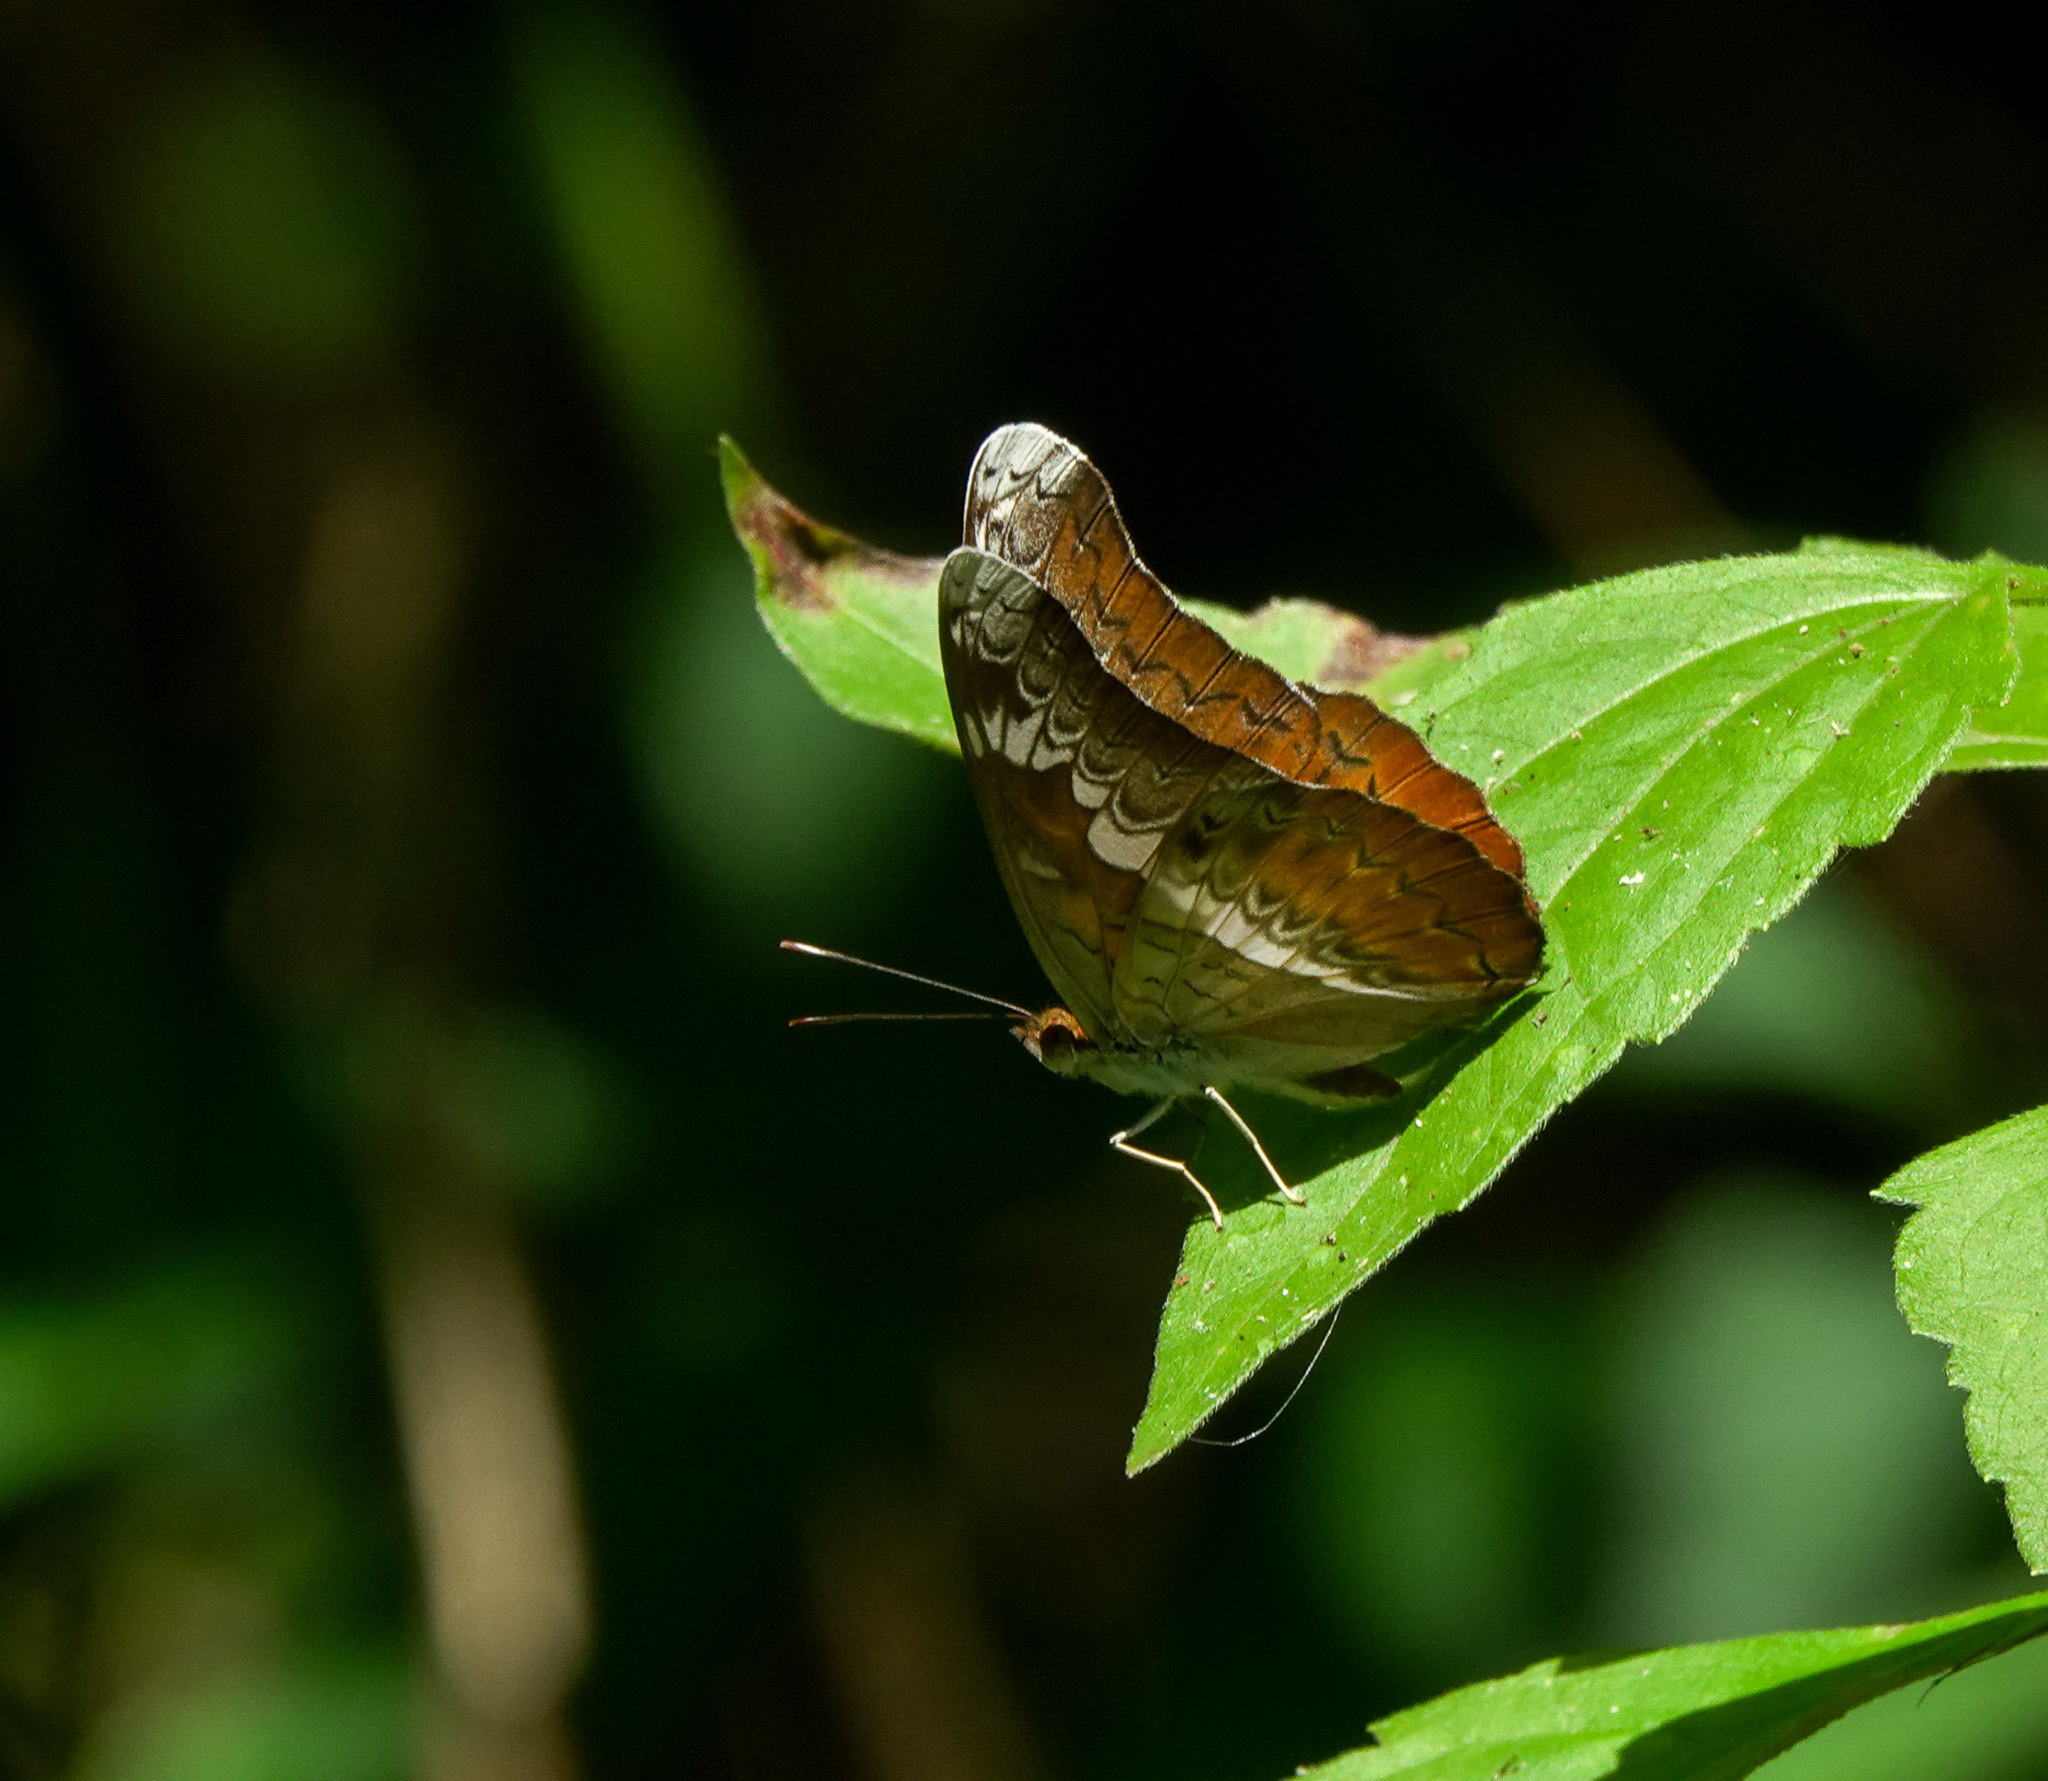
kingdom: Animalia
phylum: Arthropoda
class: Insecta
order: Lepidoptera
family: Nymphalidae
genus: Lebadea
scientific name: Lebadea martha
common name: Knight
